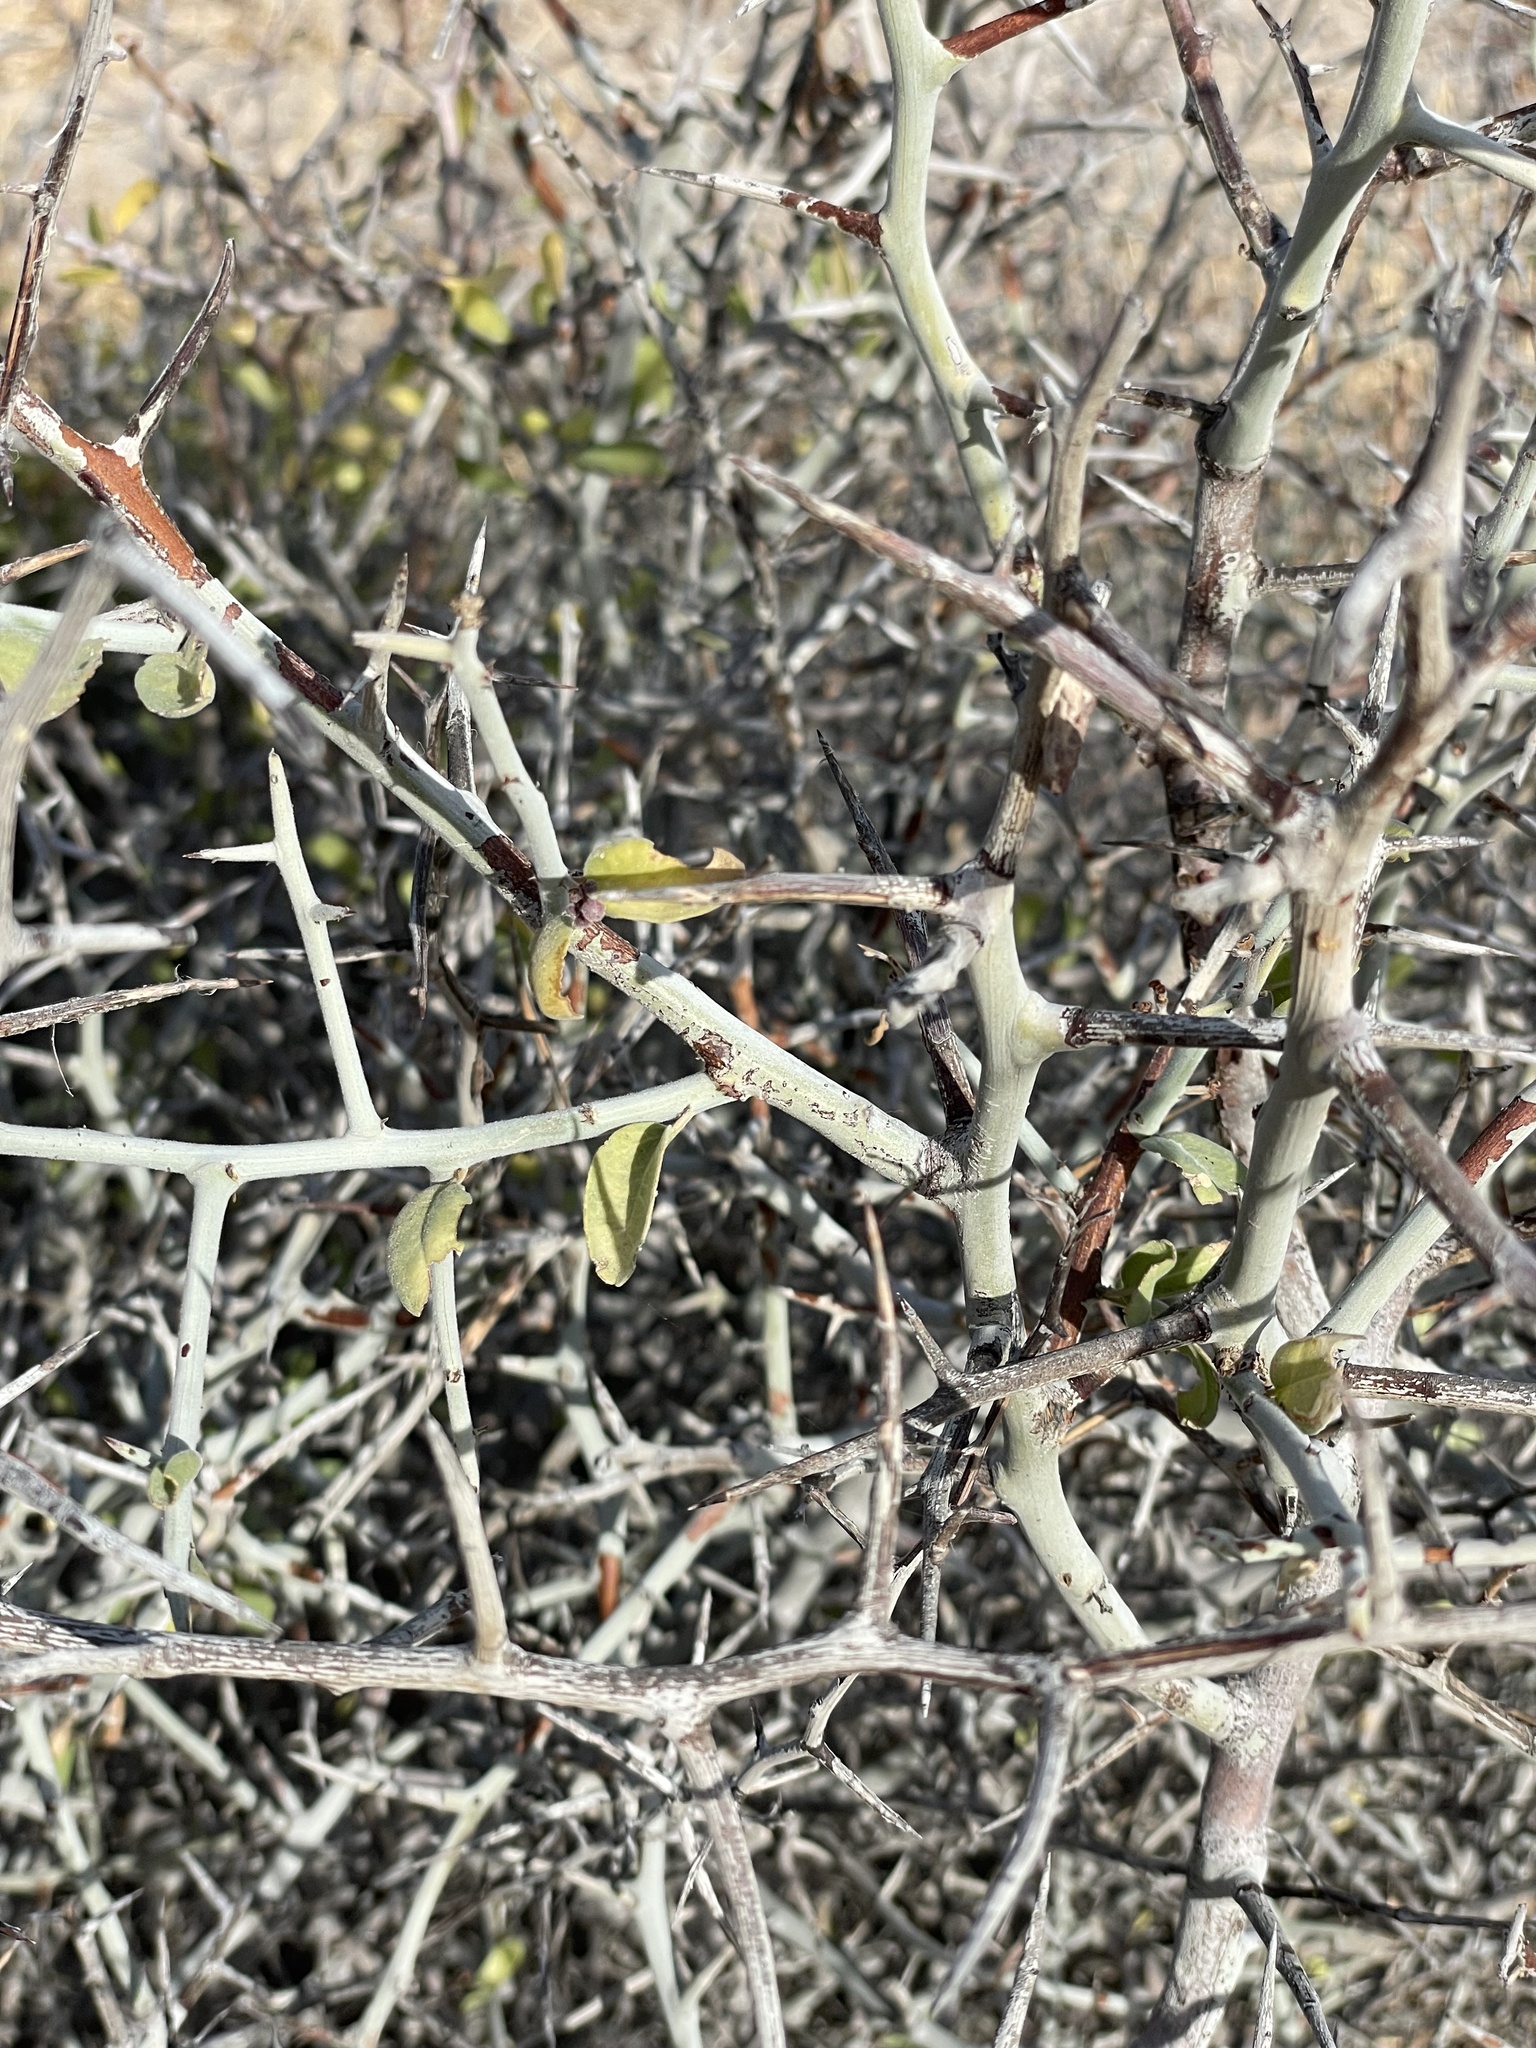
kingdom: Plantae
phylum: Tracheophyta
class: Magnoliopsida
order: Rosales
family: Rhamnaceae
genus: Sarcomphalus
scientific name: Sarcomphalus obtusifolius
